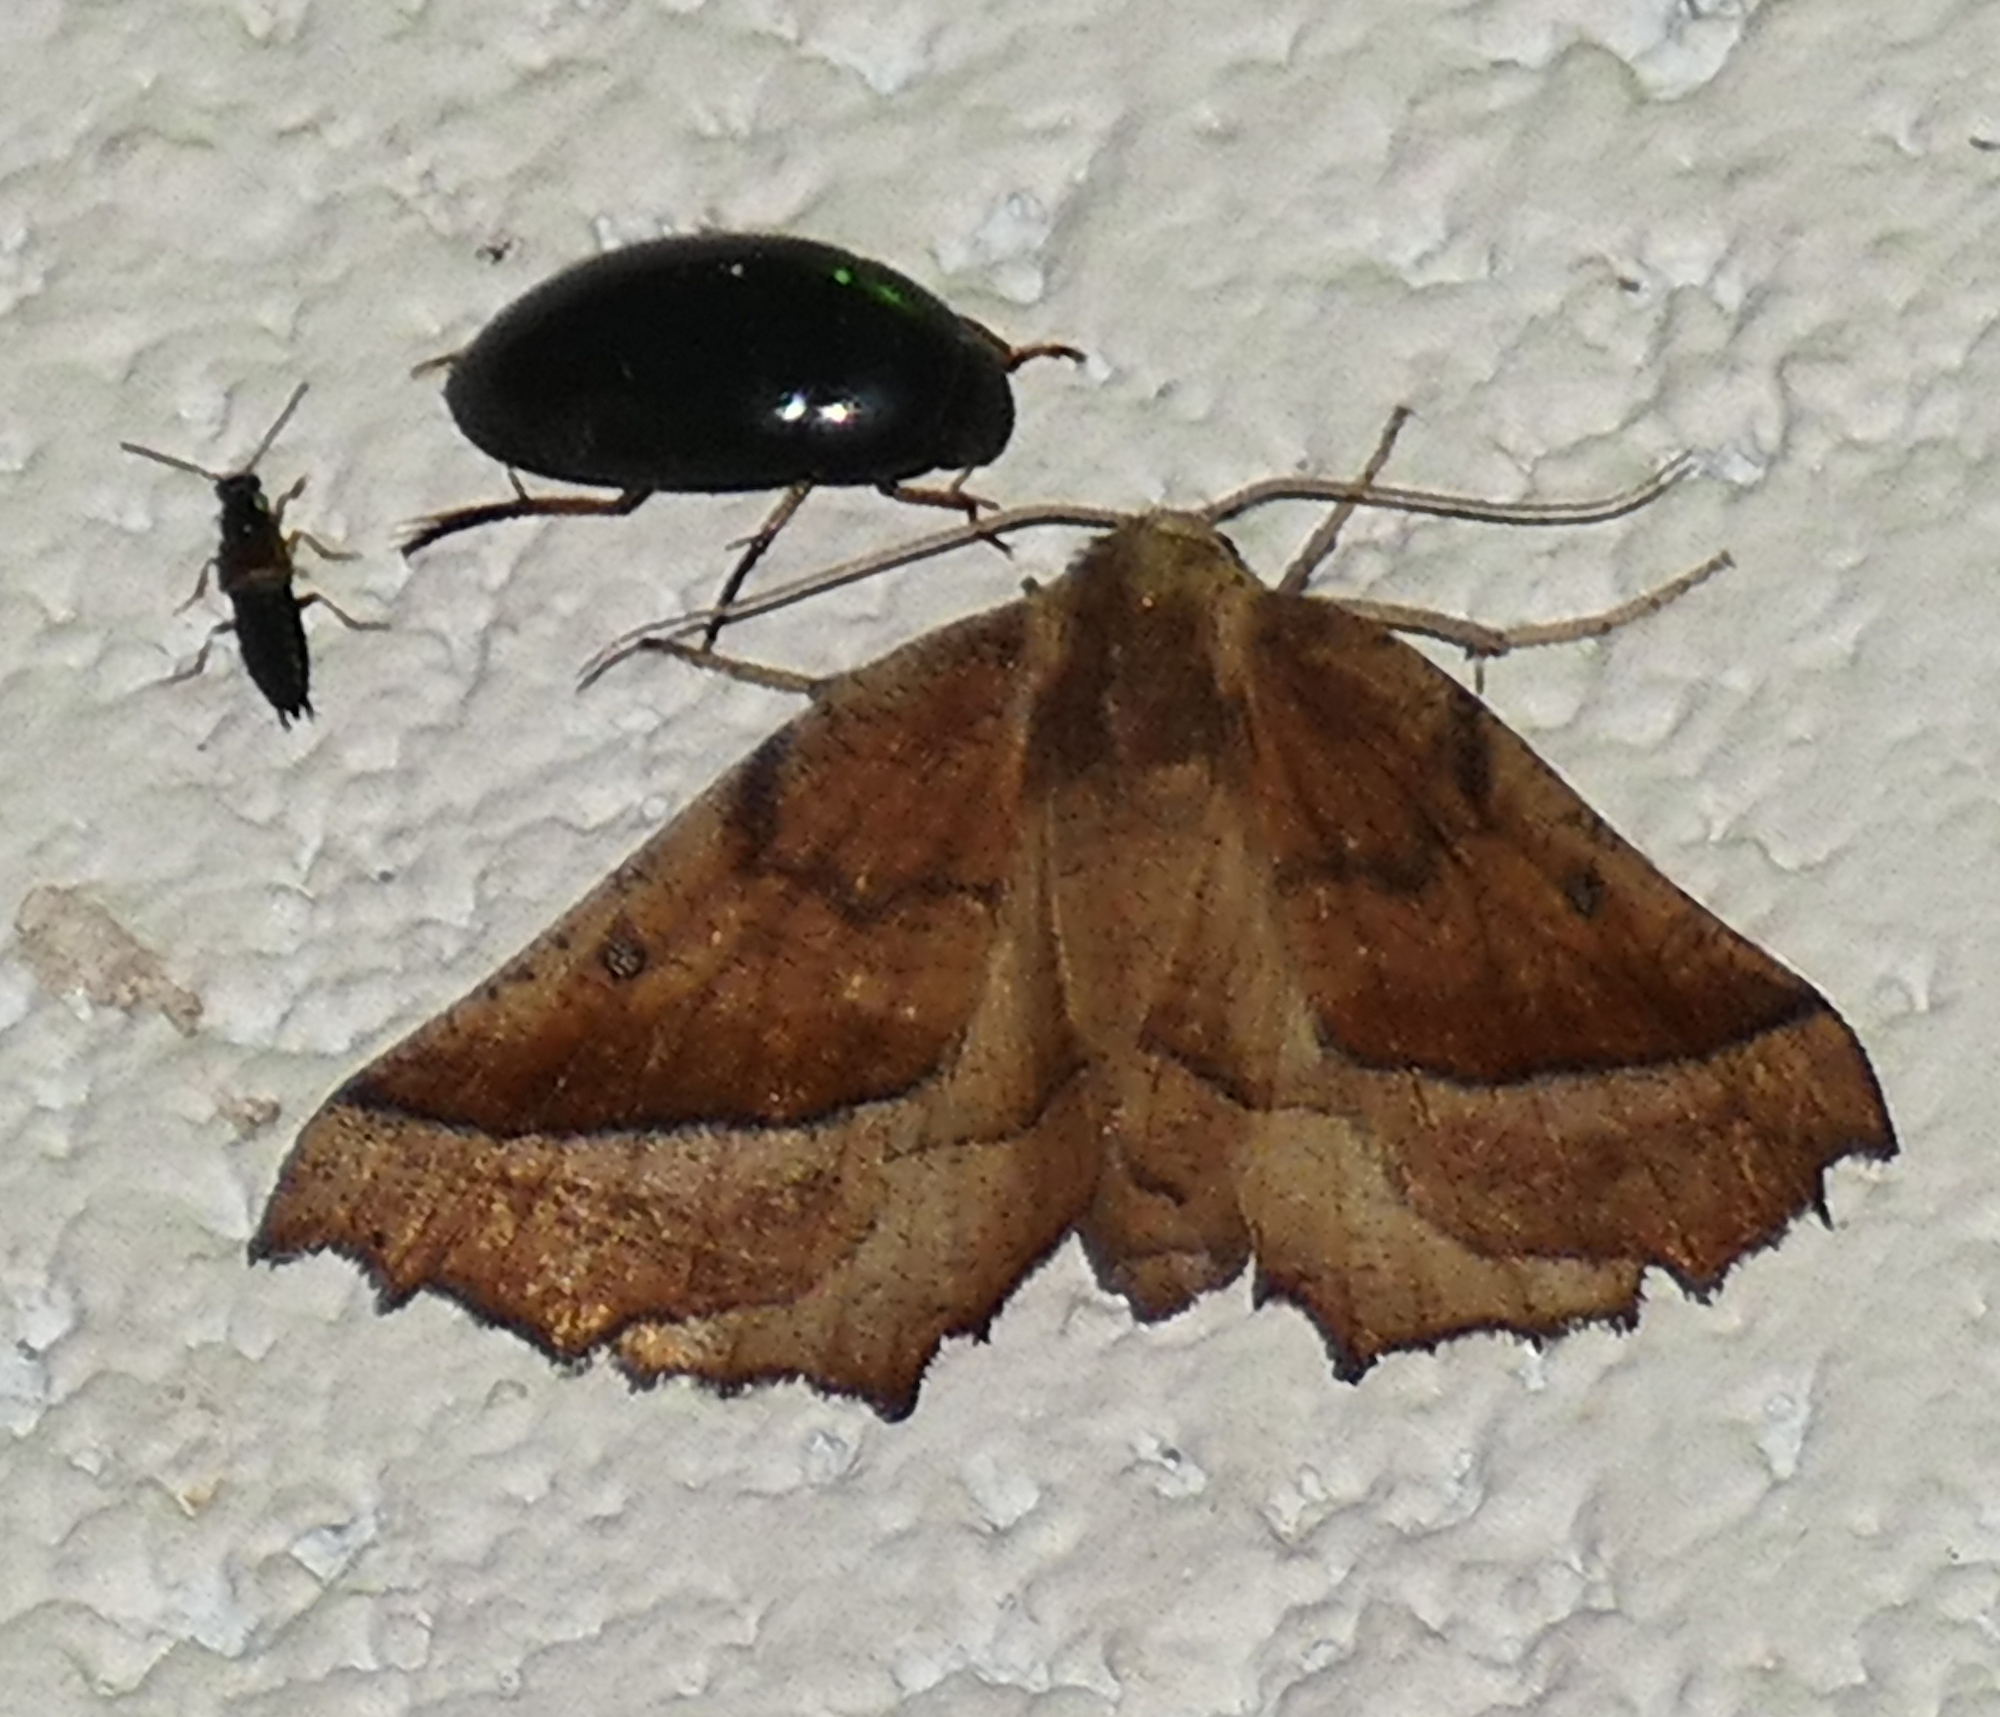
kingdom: Animalia
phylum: Arthropoda
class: Insecta
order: Lepidoptera
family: Geometridae
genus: Pero
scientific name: Pero zalissaria
